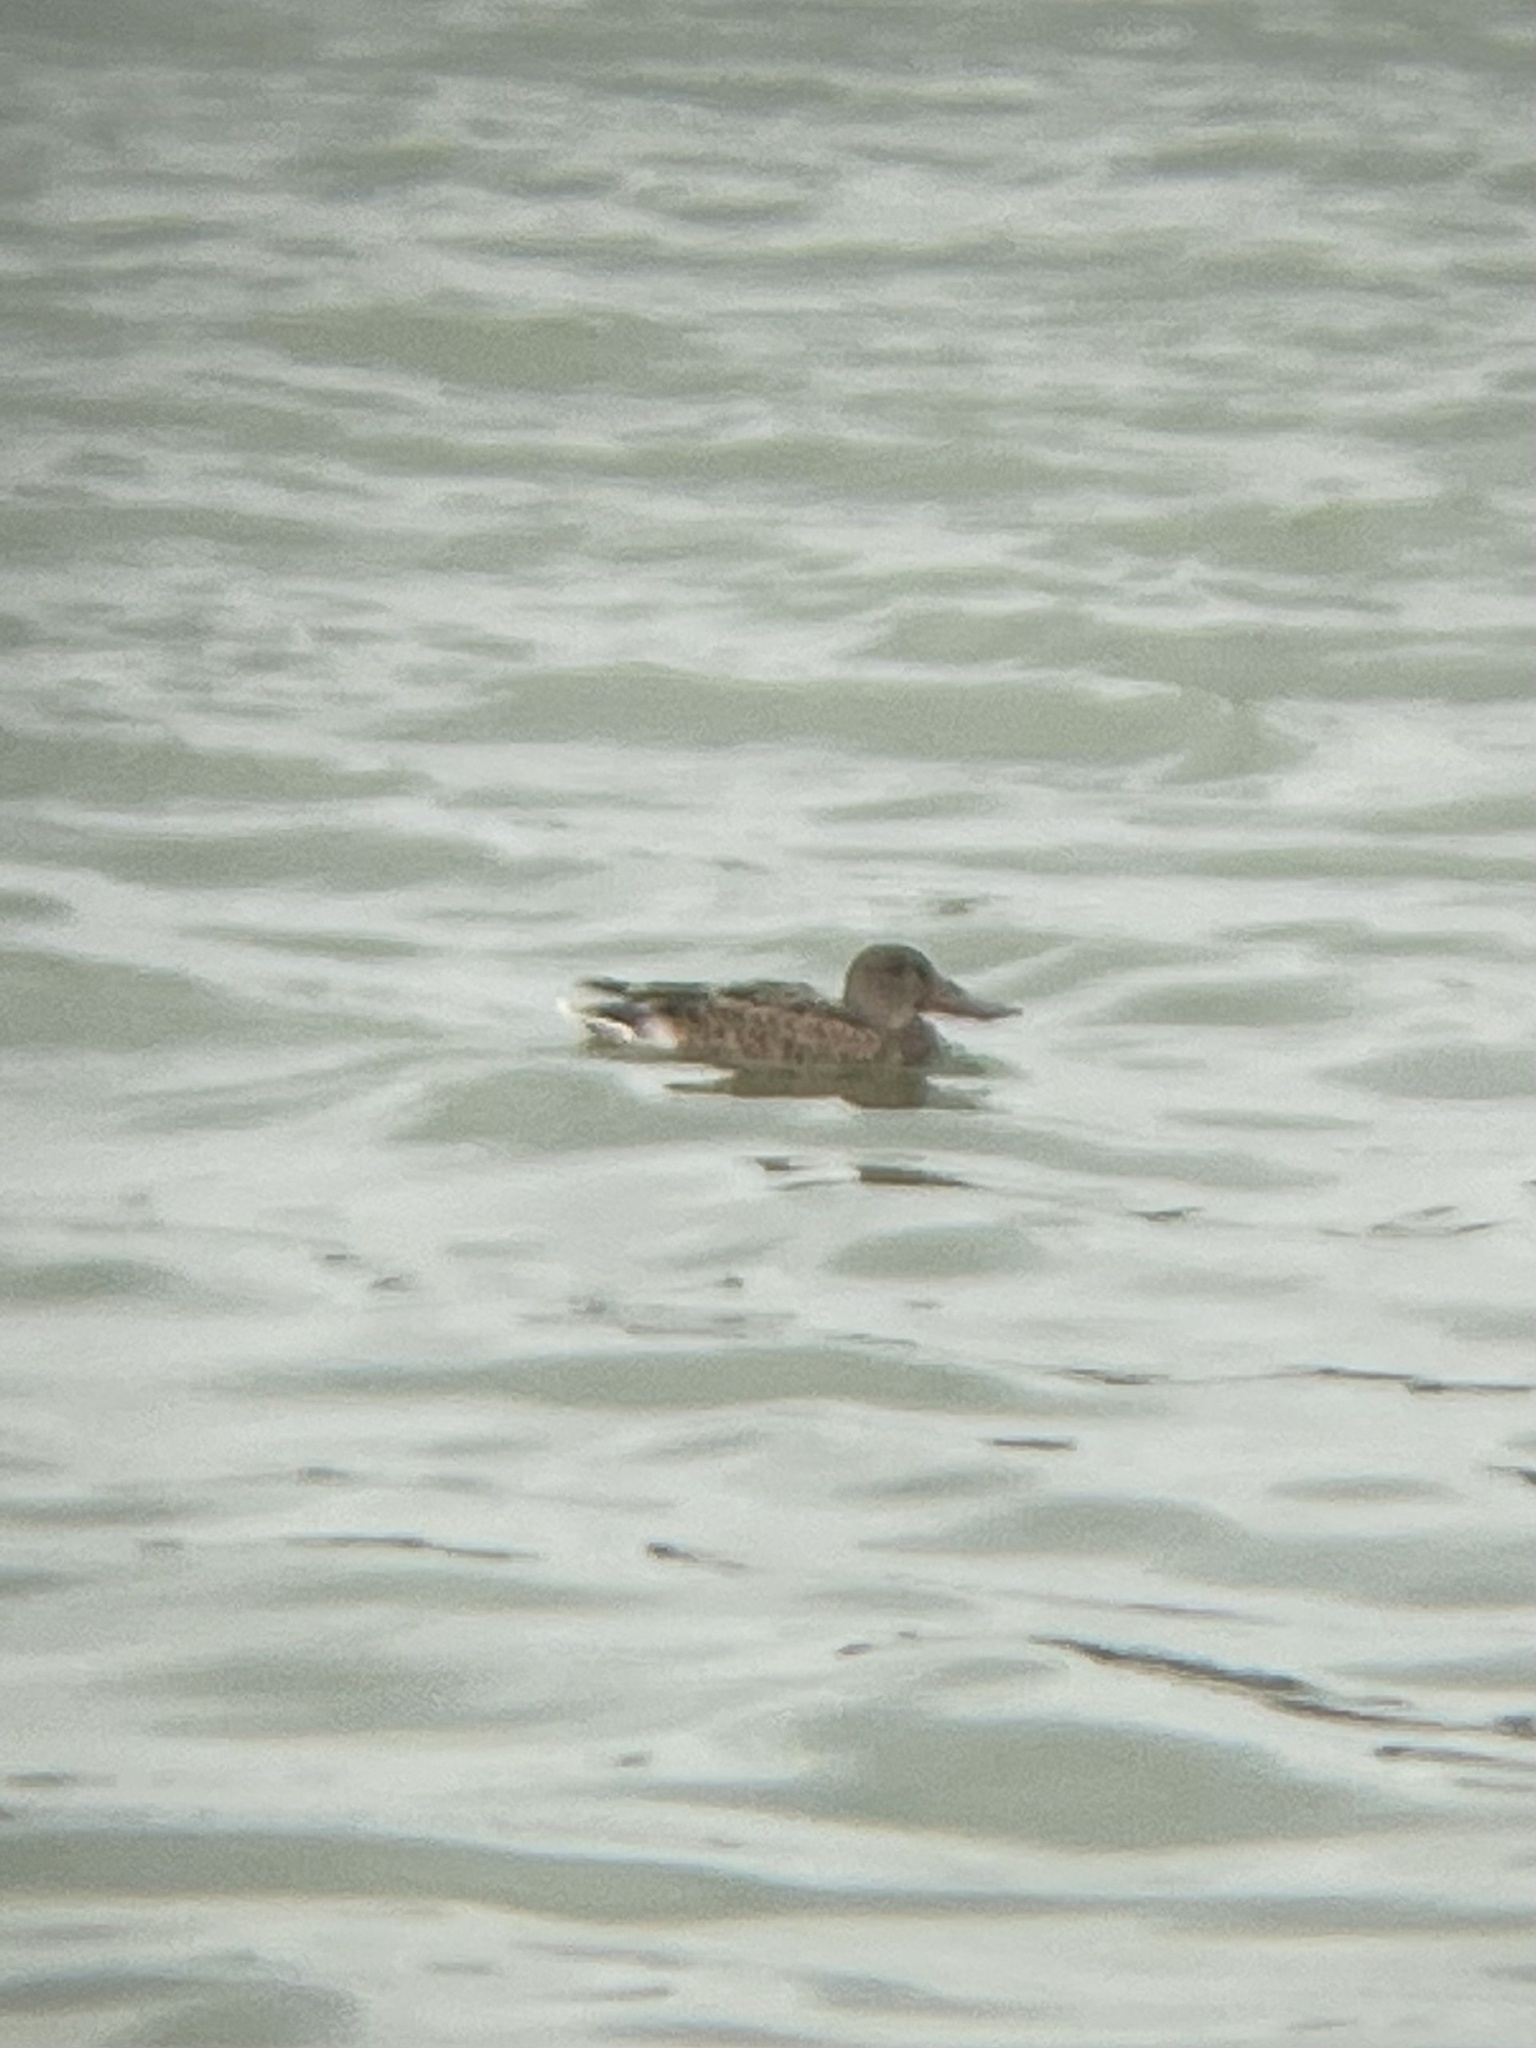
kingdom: Animalia
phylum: Chordata
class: Aves
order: Anseriformes
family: Anatidae
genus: Spatula
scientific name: Spatula clypeata
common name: Northern shoveler
